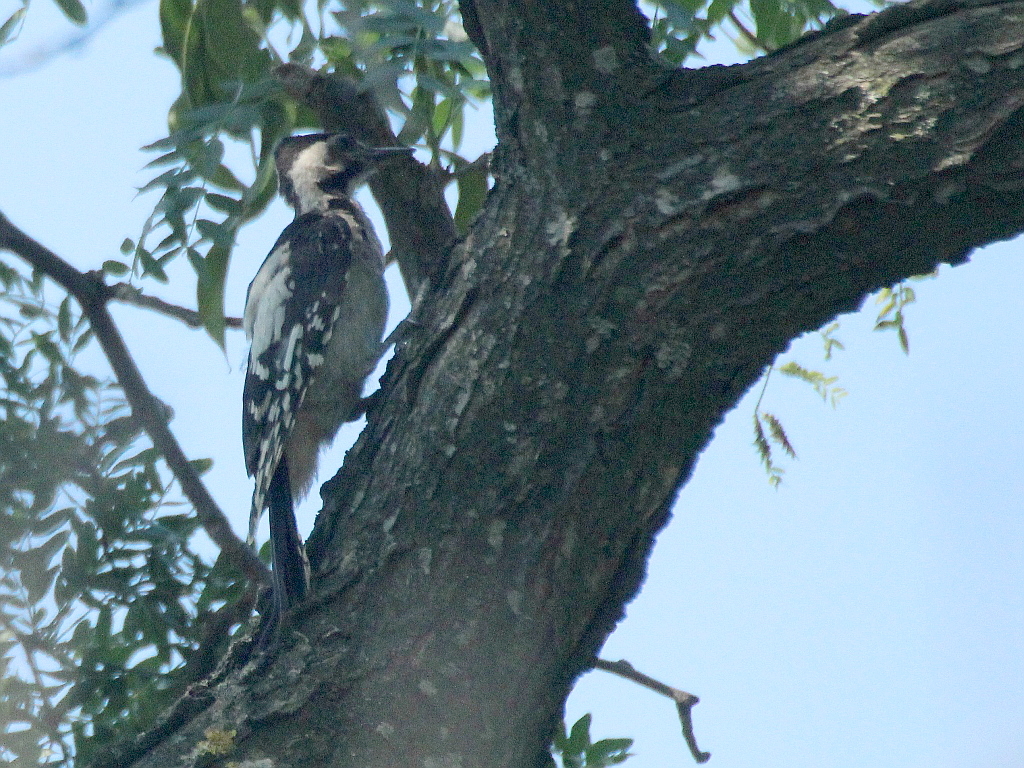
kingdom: Animalia
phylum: Chordata
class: Aves
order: Piciformes
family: Picidae
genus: Dendrocopos
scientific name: Dendrocopos syriacus
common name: Syrian woodpecker
